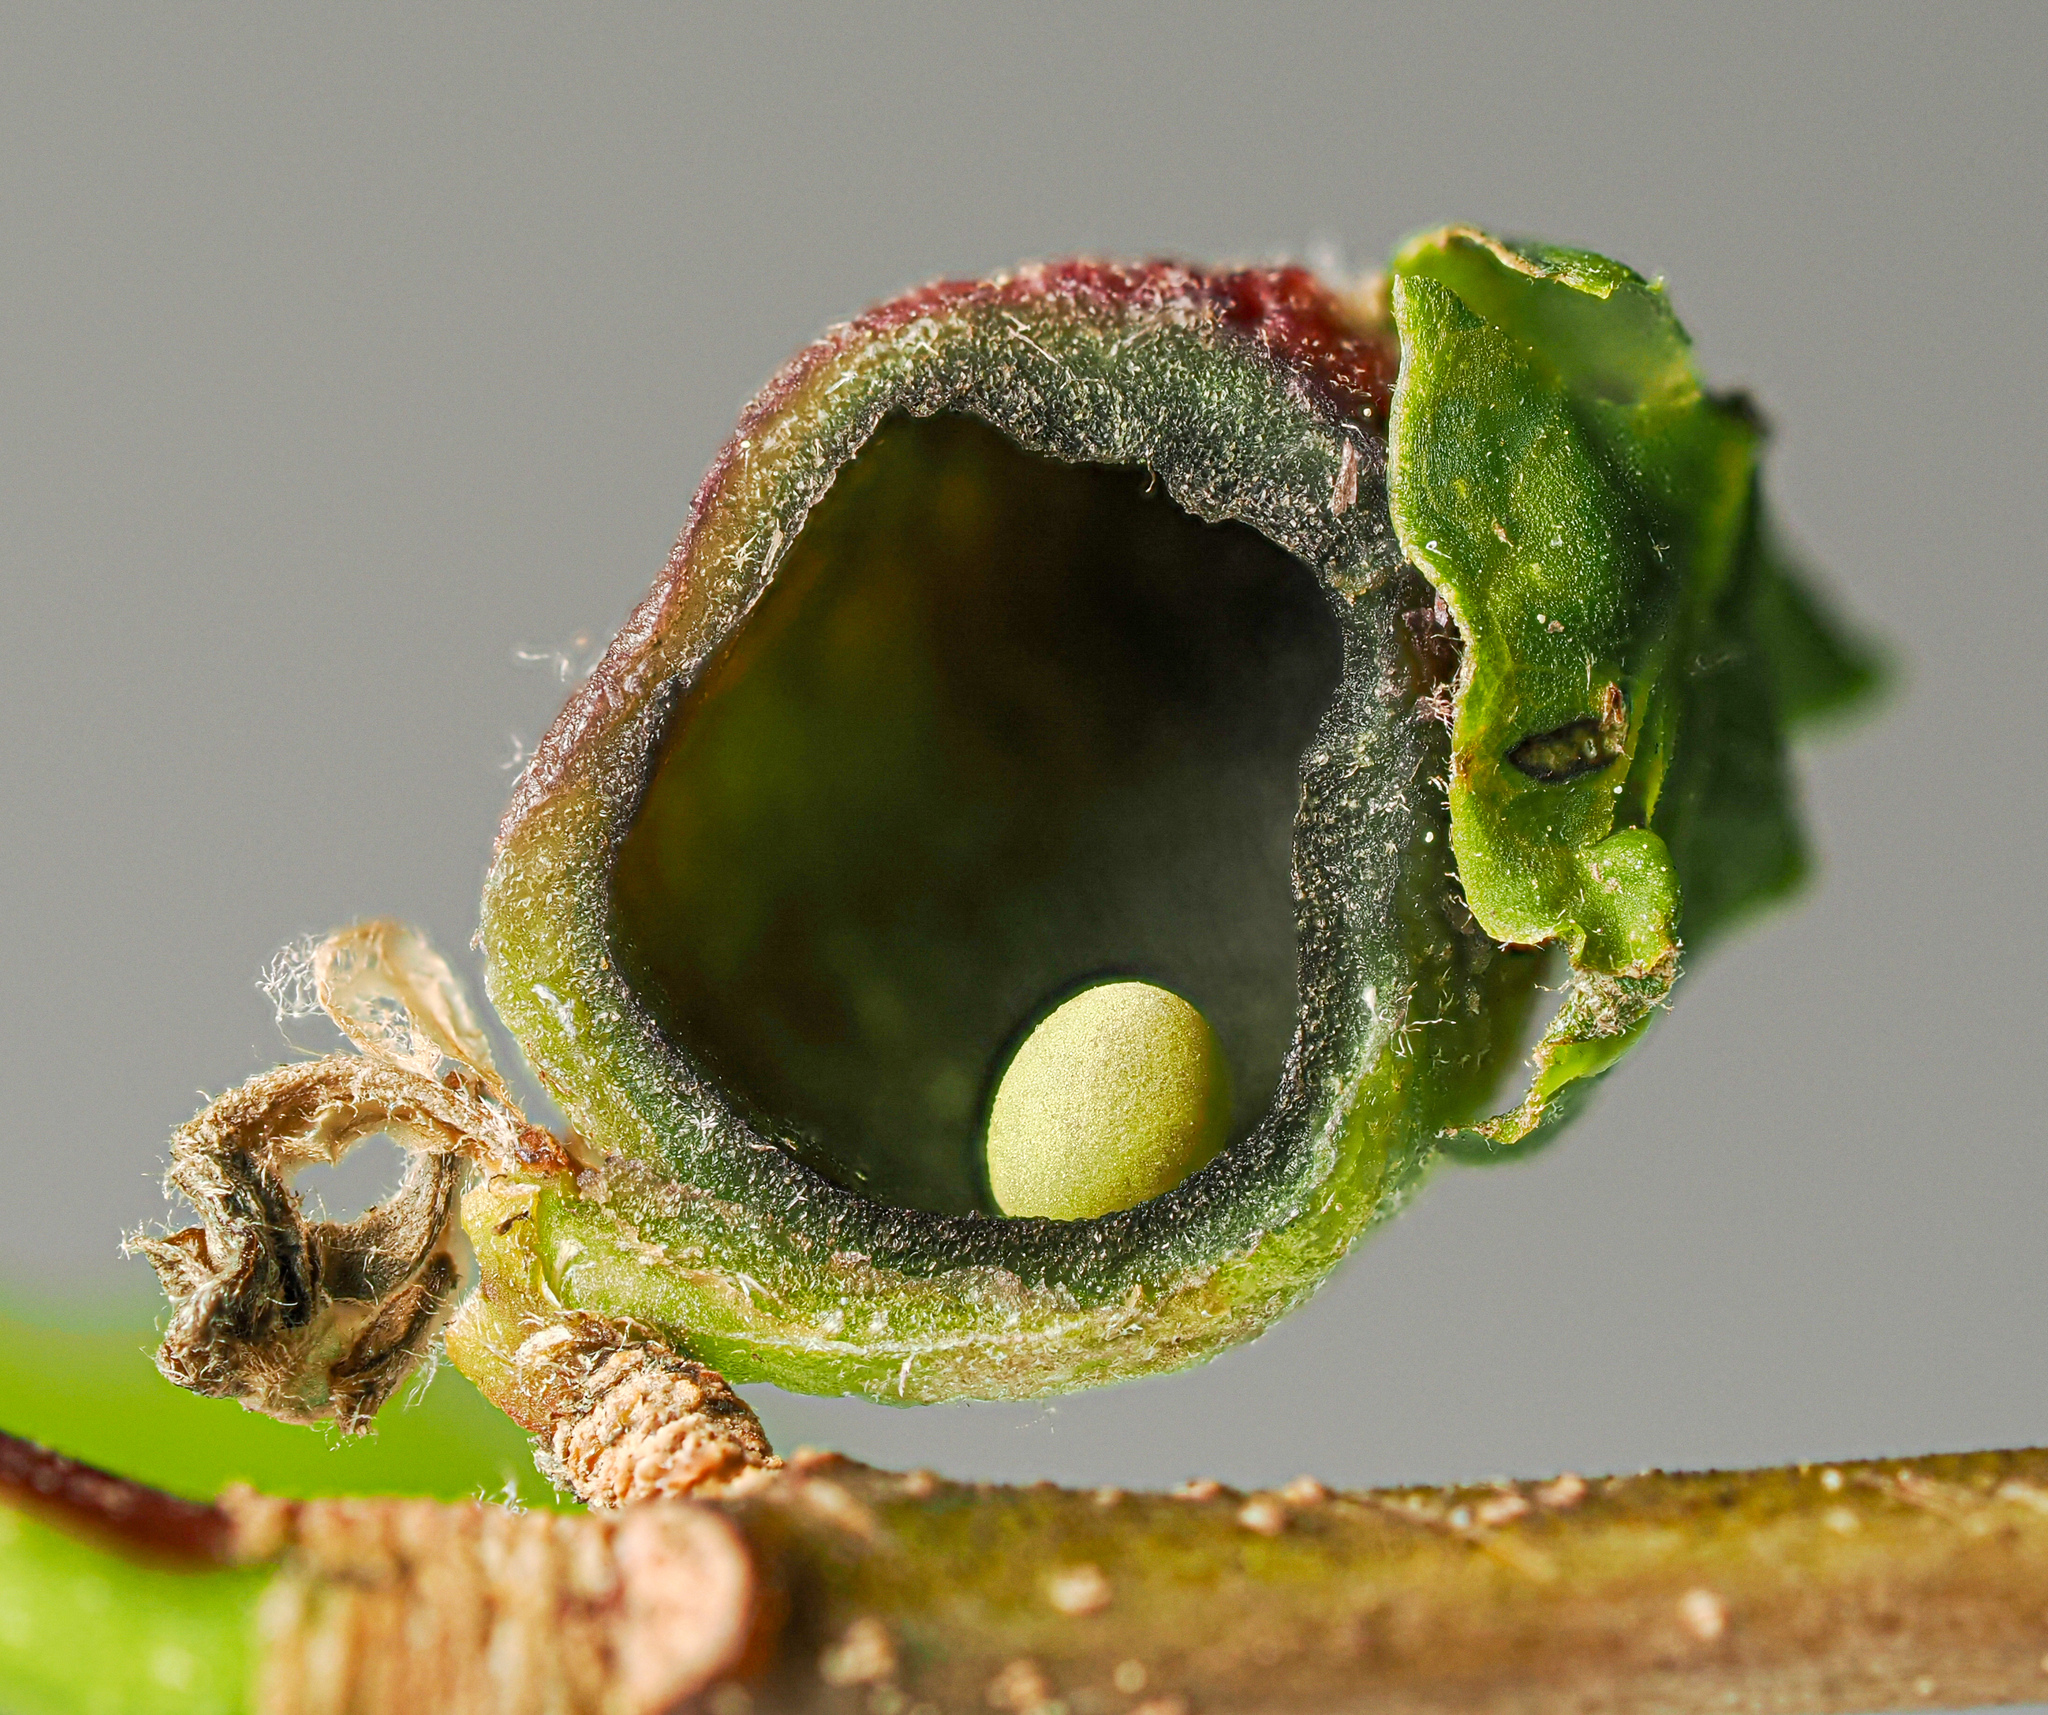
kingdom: Animalia
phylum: Arthropoda
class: Insecta
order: Hymenoptera
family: Cynipidae
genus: Dryocosmus
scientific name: Dryocosmus quercuspalustris
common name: Succulent oak gall wasp
